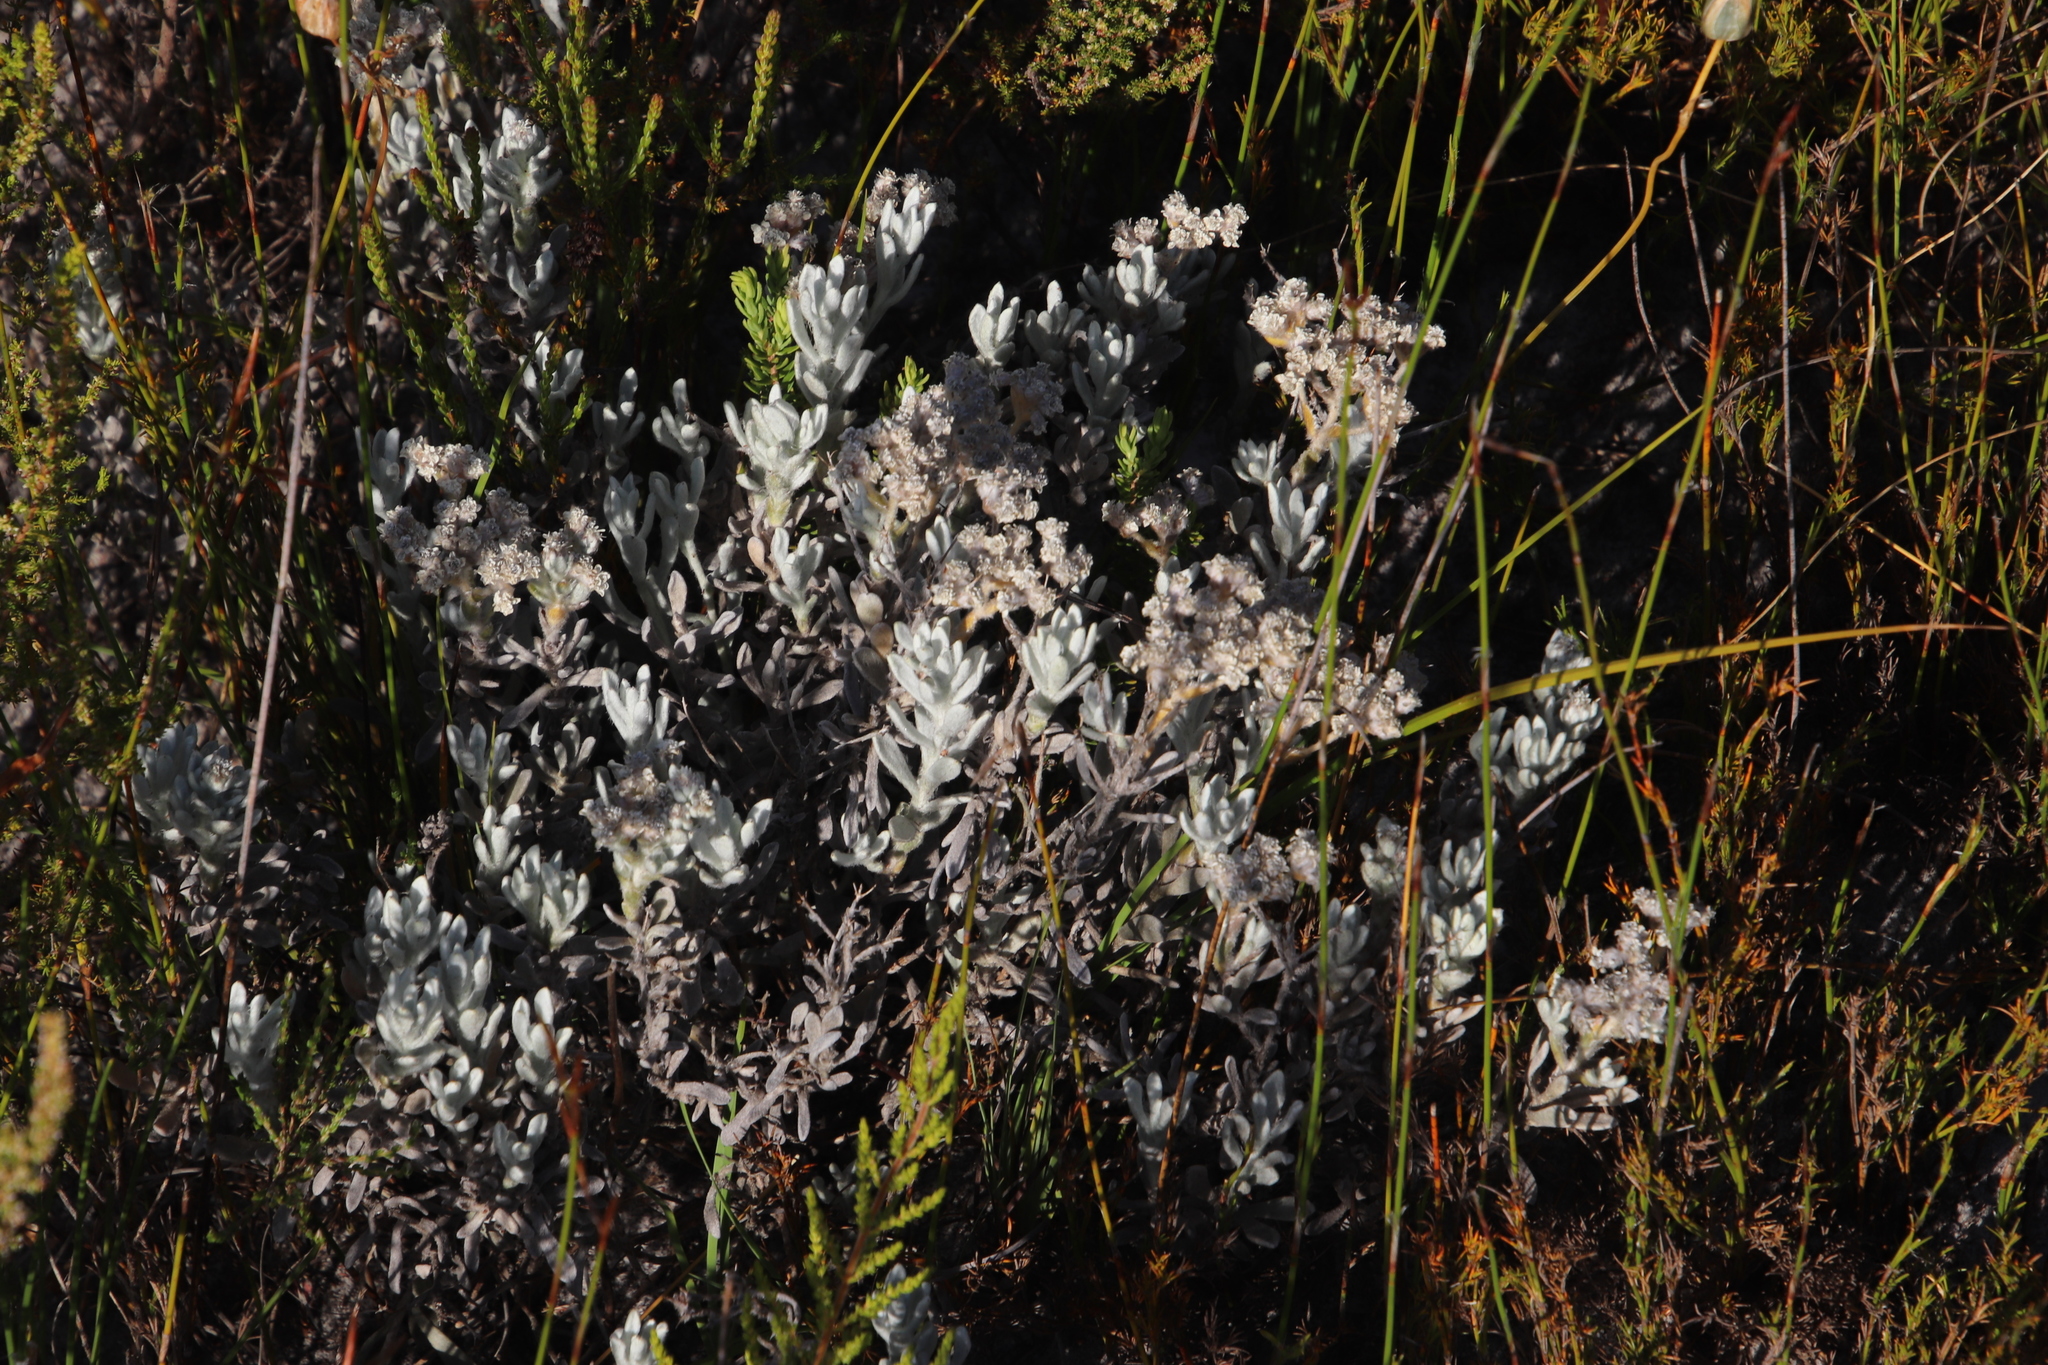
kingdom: Plantae
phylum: Tracheophyta
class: Magnoliopsida
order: Asterales
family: Asteraceae
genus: Petalacte
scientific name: Petalacte coronata
